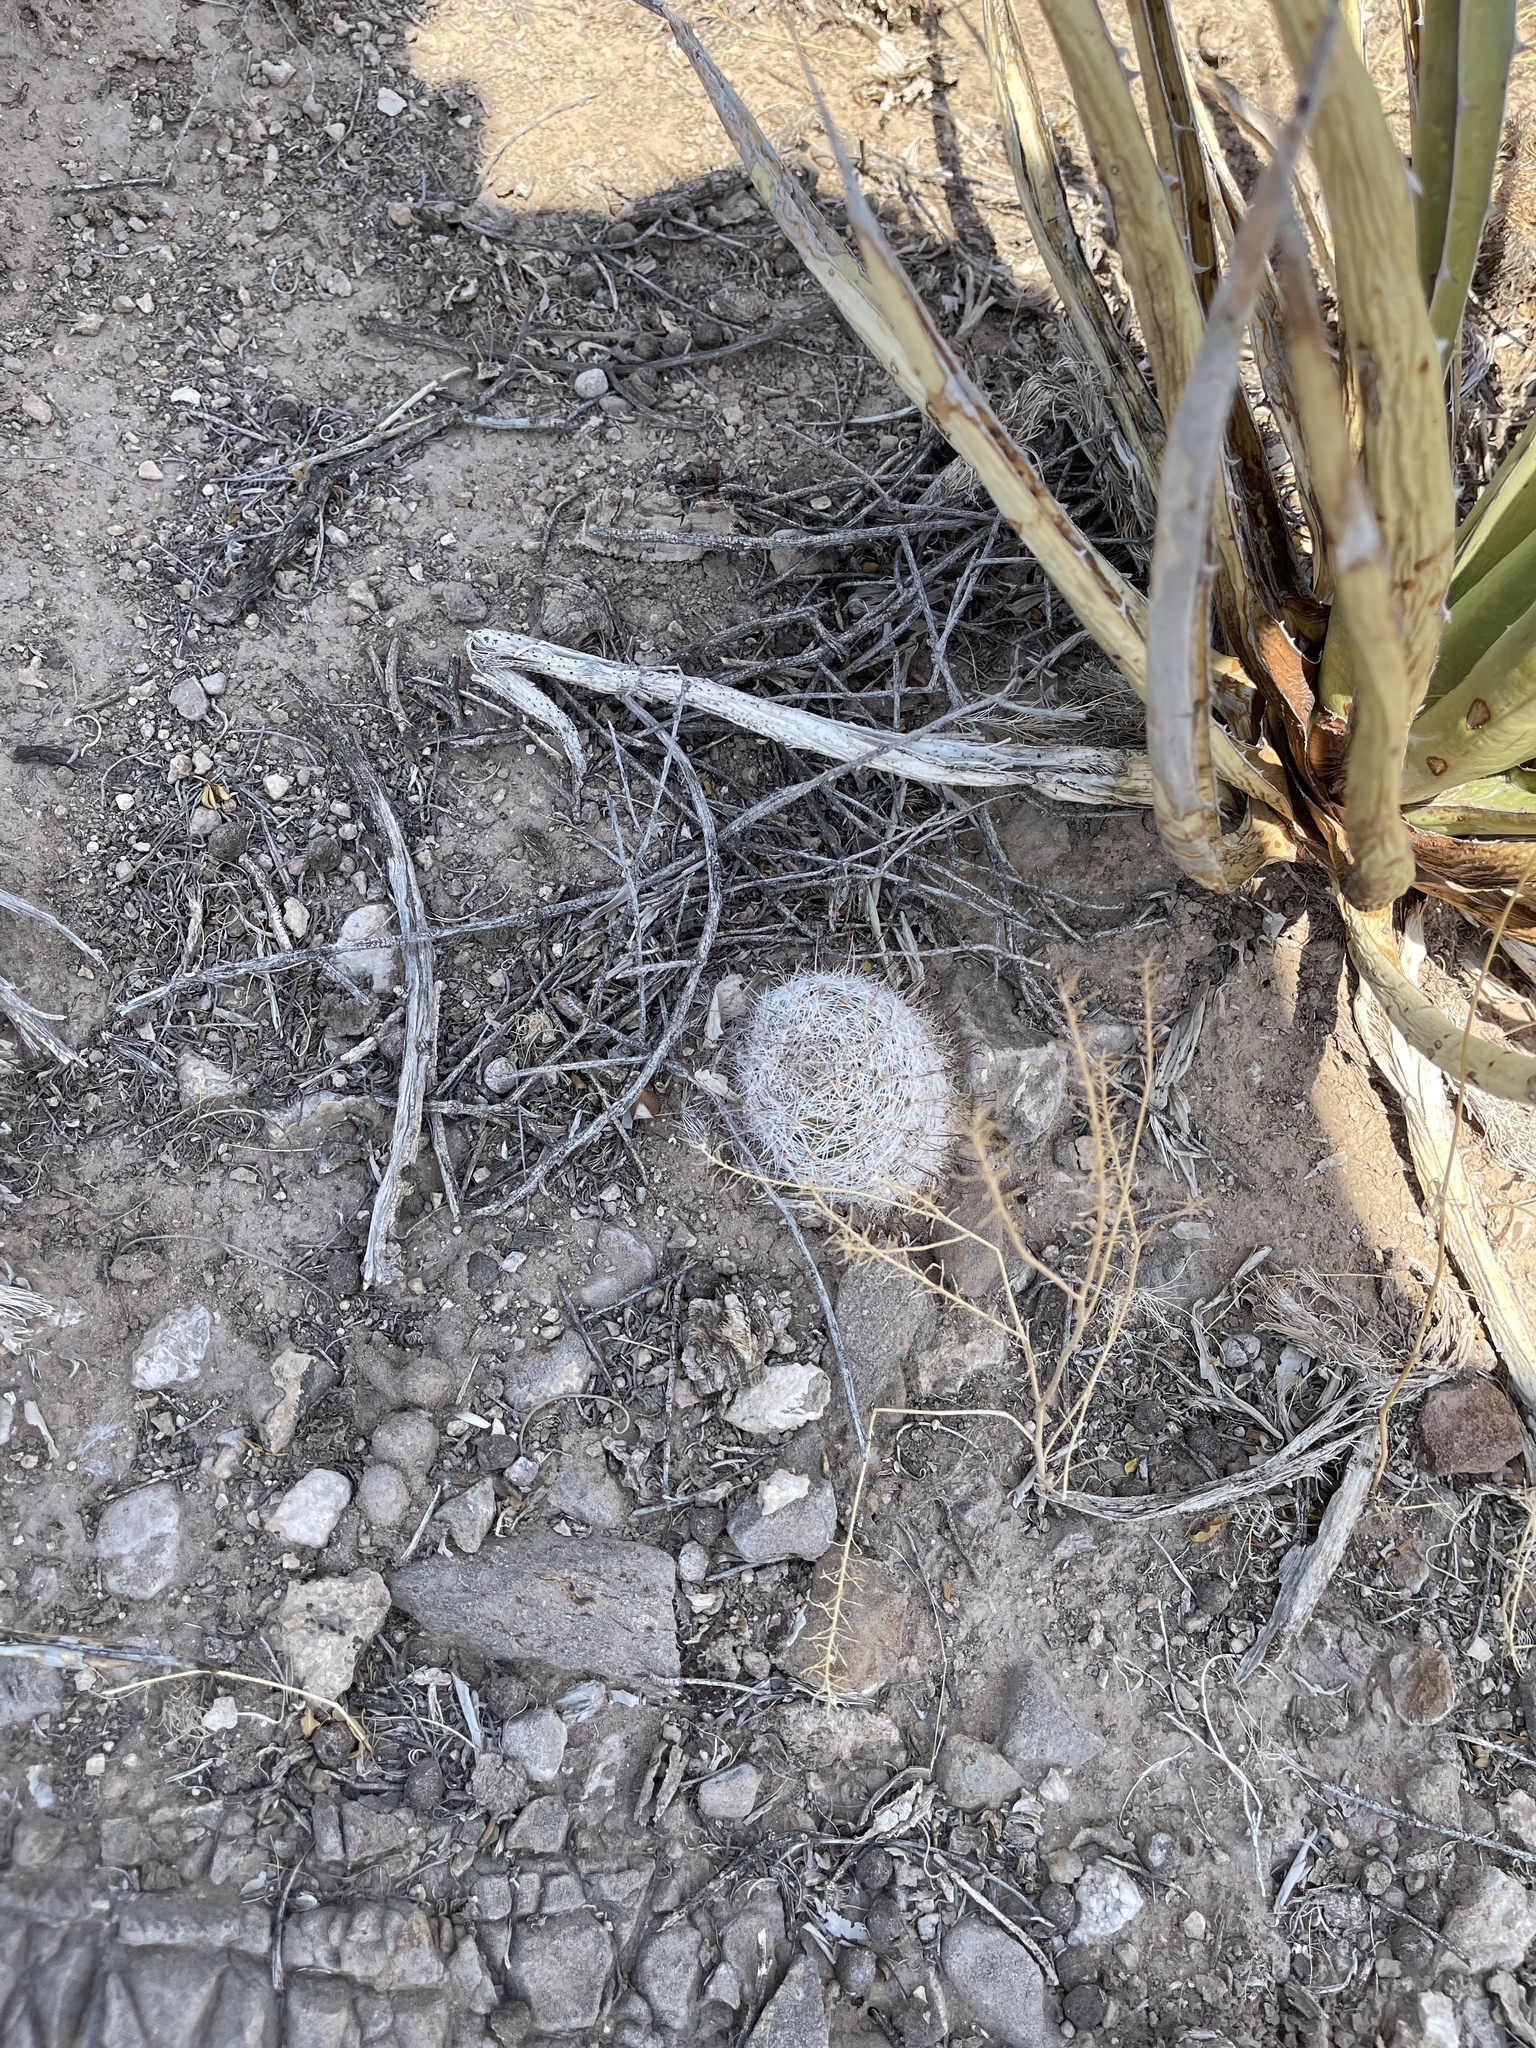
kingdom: Plantae
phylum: Tracheophyta
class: Magnoliopsida
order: Caryophyllales
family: Cactaceae
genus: Cochemiea
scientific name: Cochemiea grahamii
